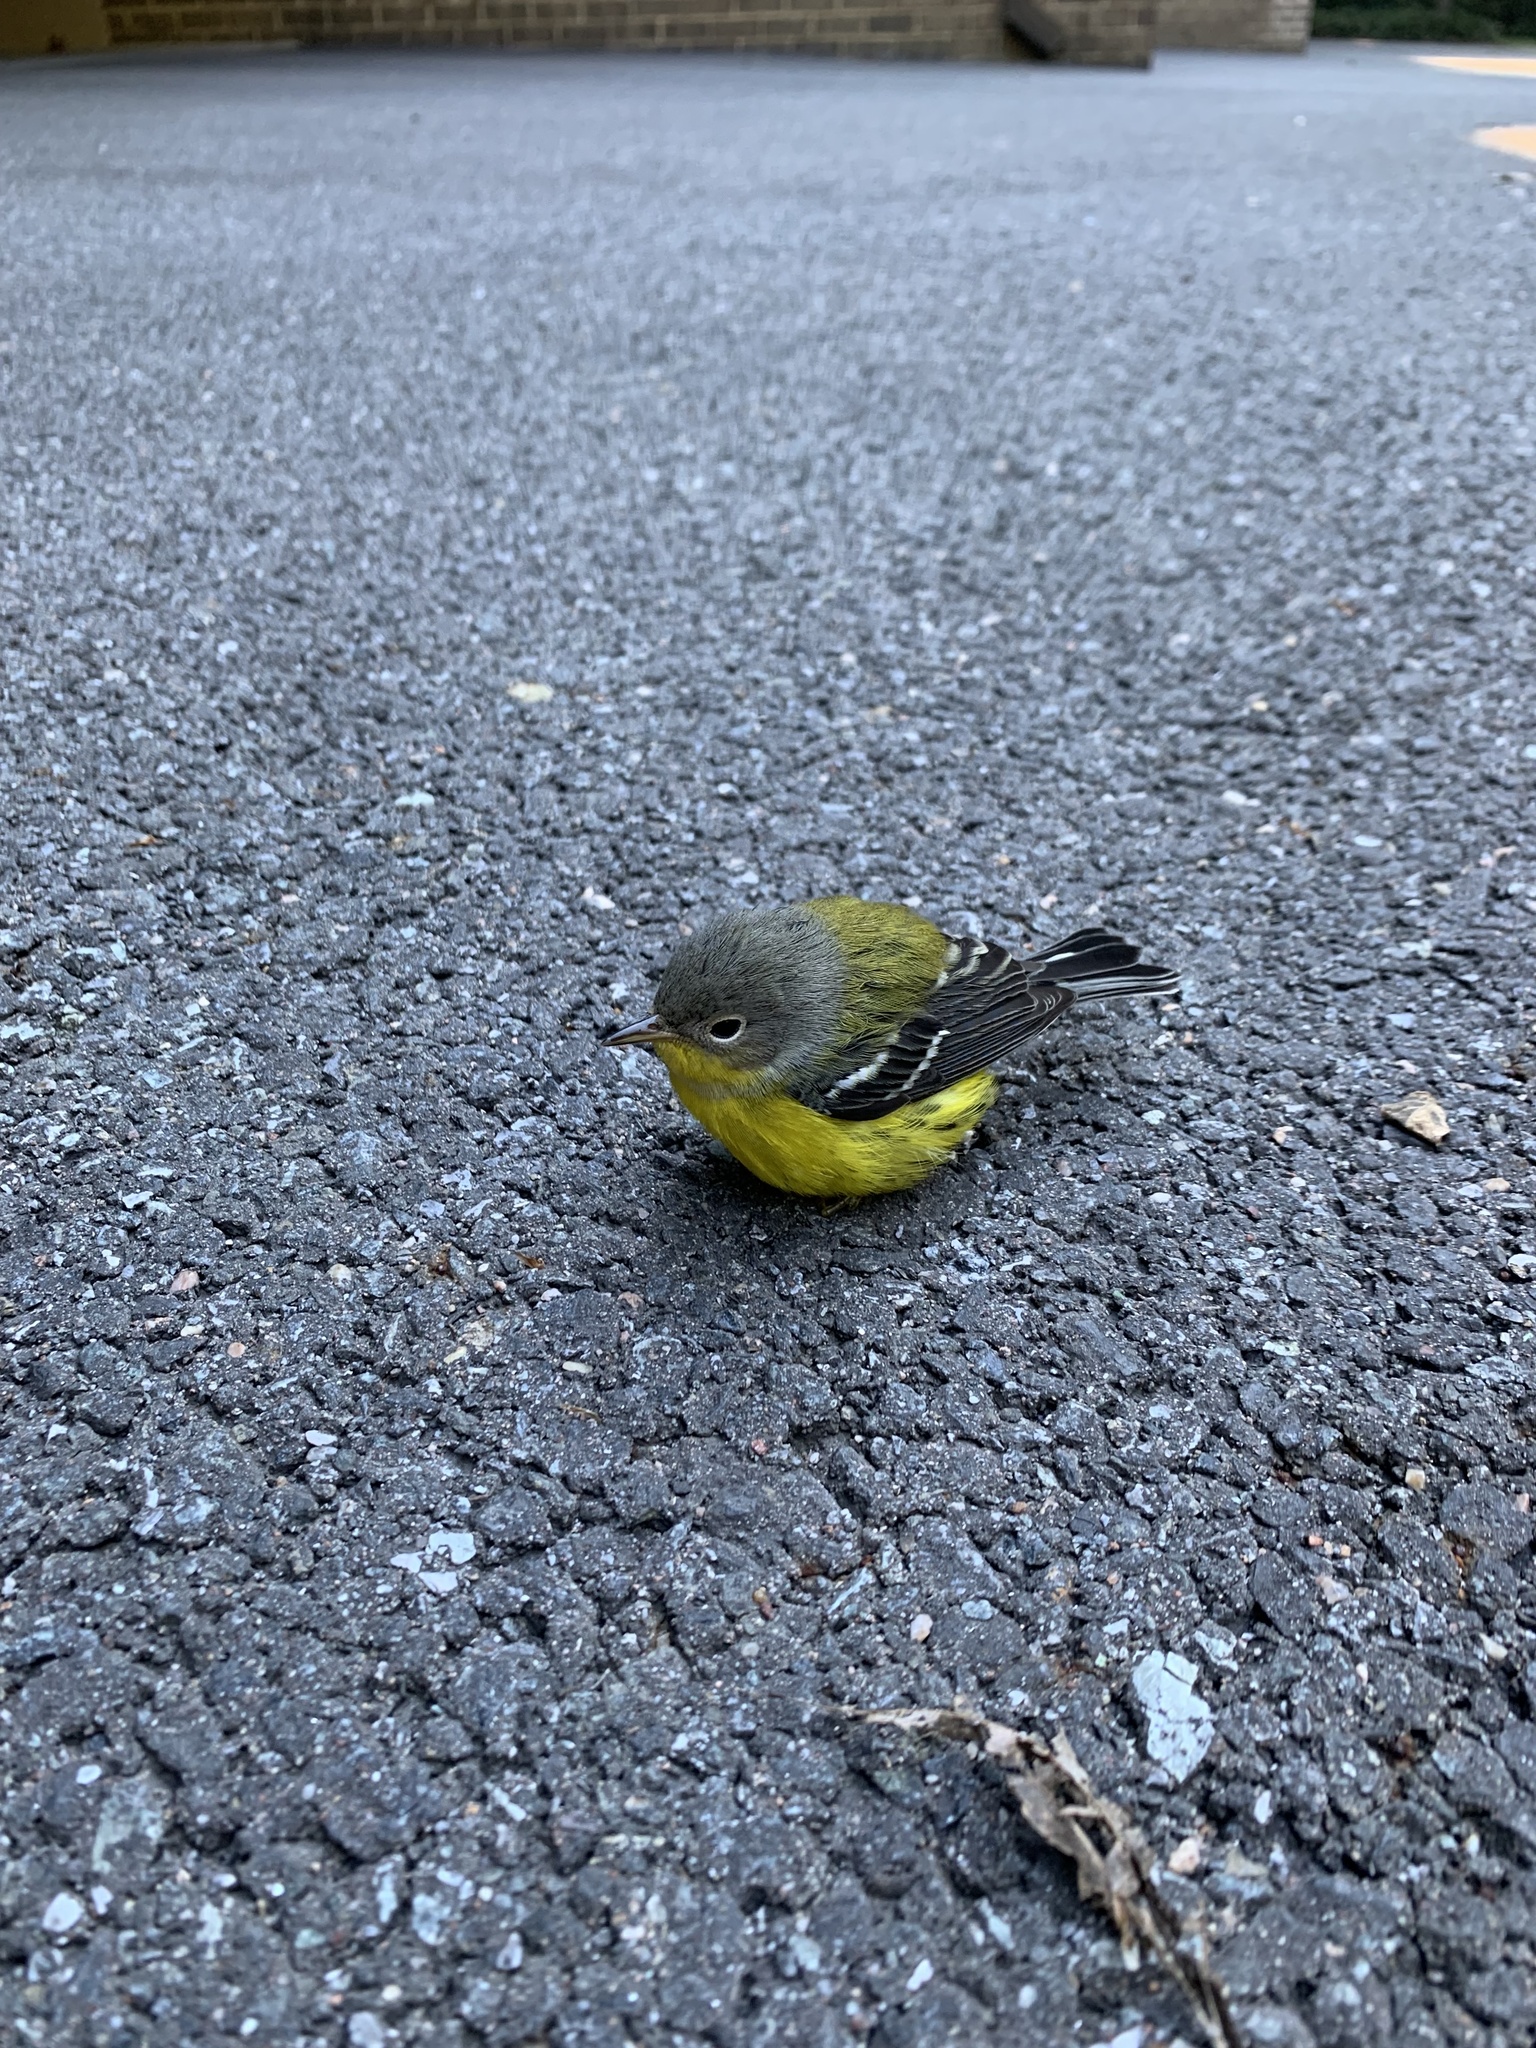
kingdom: Animalia
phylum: Chordata
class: Aves
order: Passeriformes
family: Parulidae
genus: Setophaga
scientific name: Setophaga magnolia
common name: Magnolia warbler
